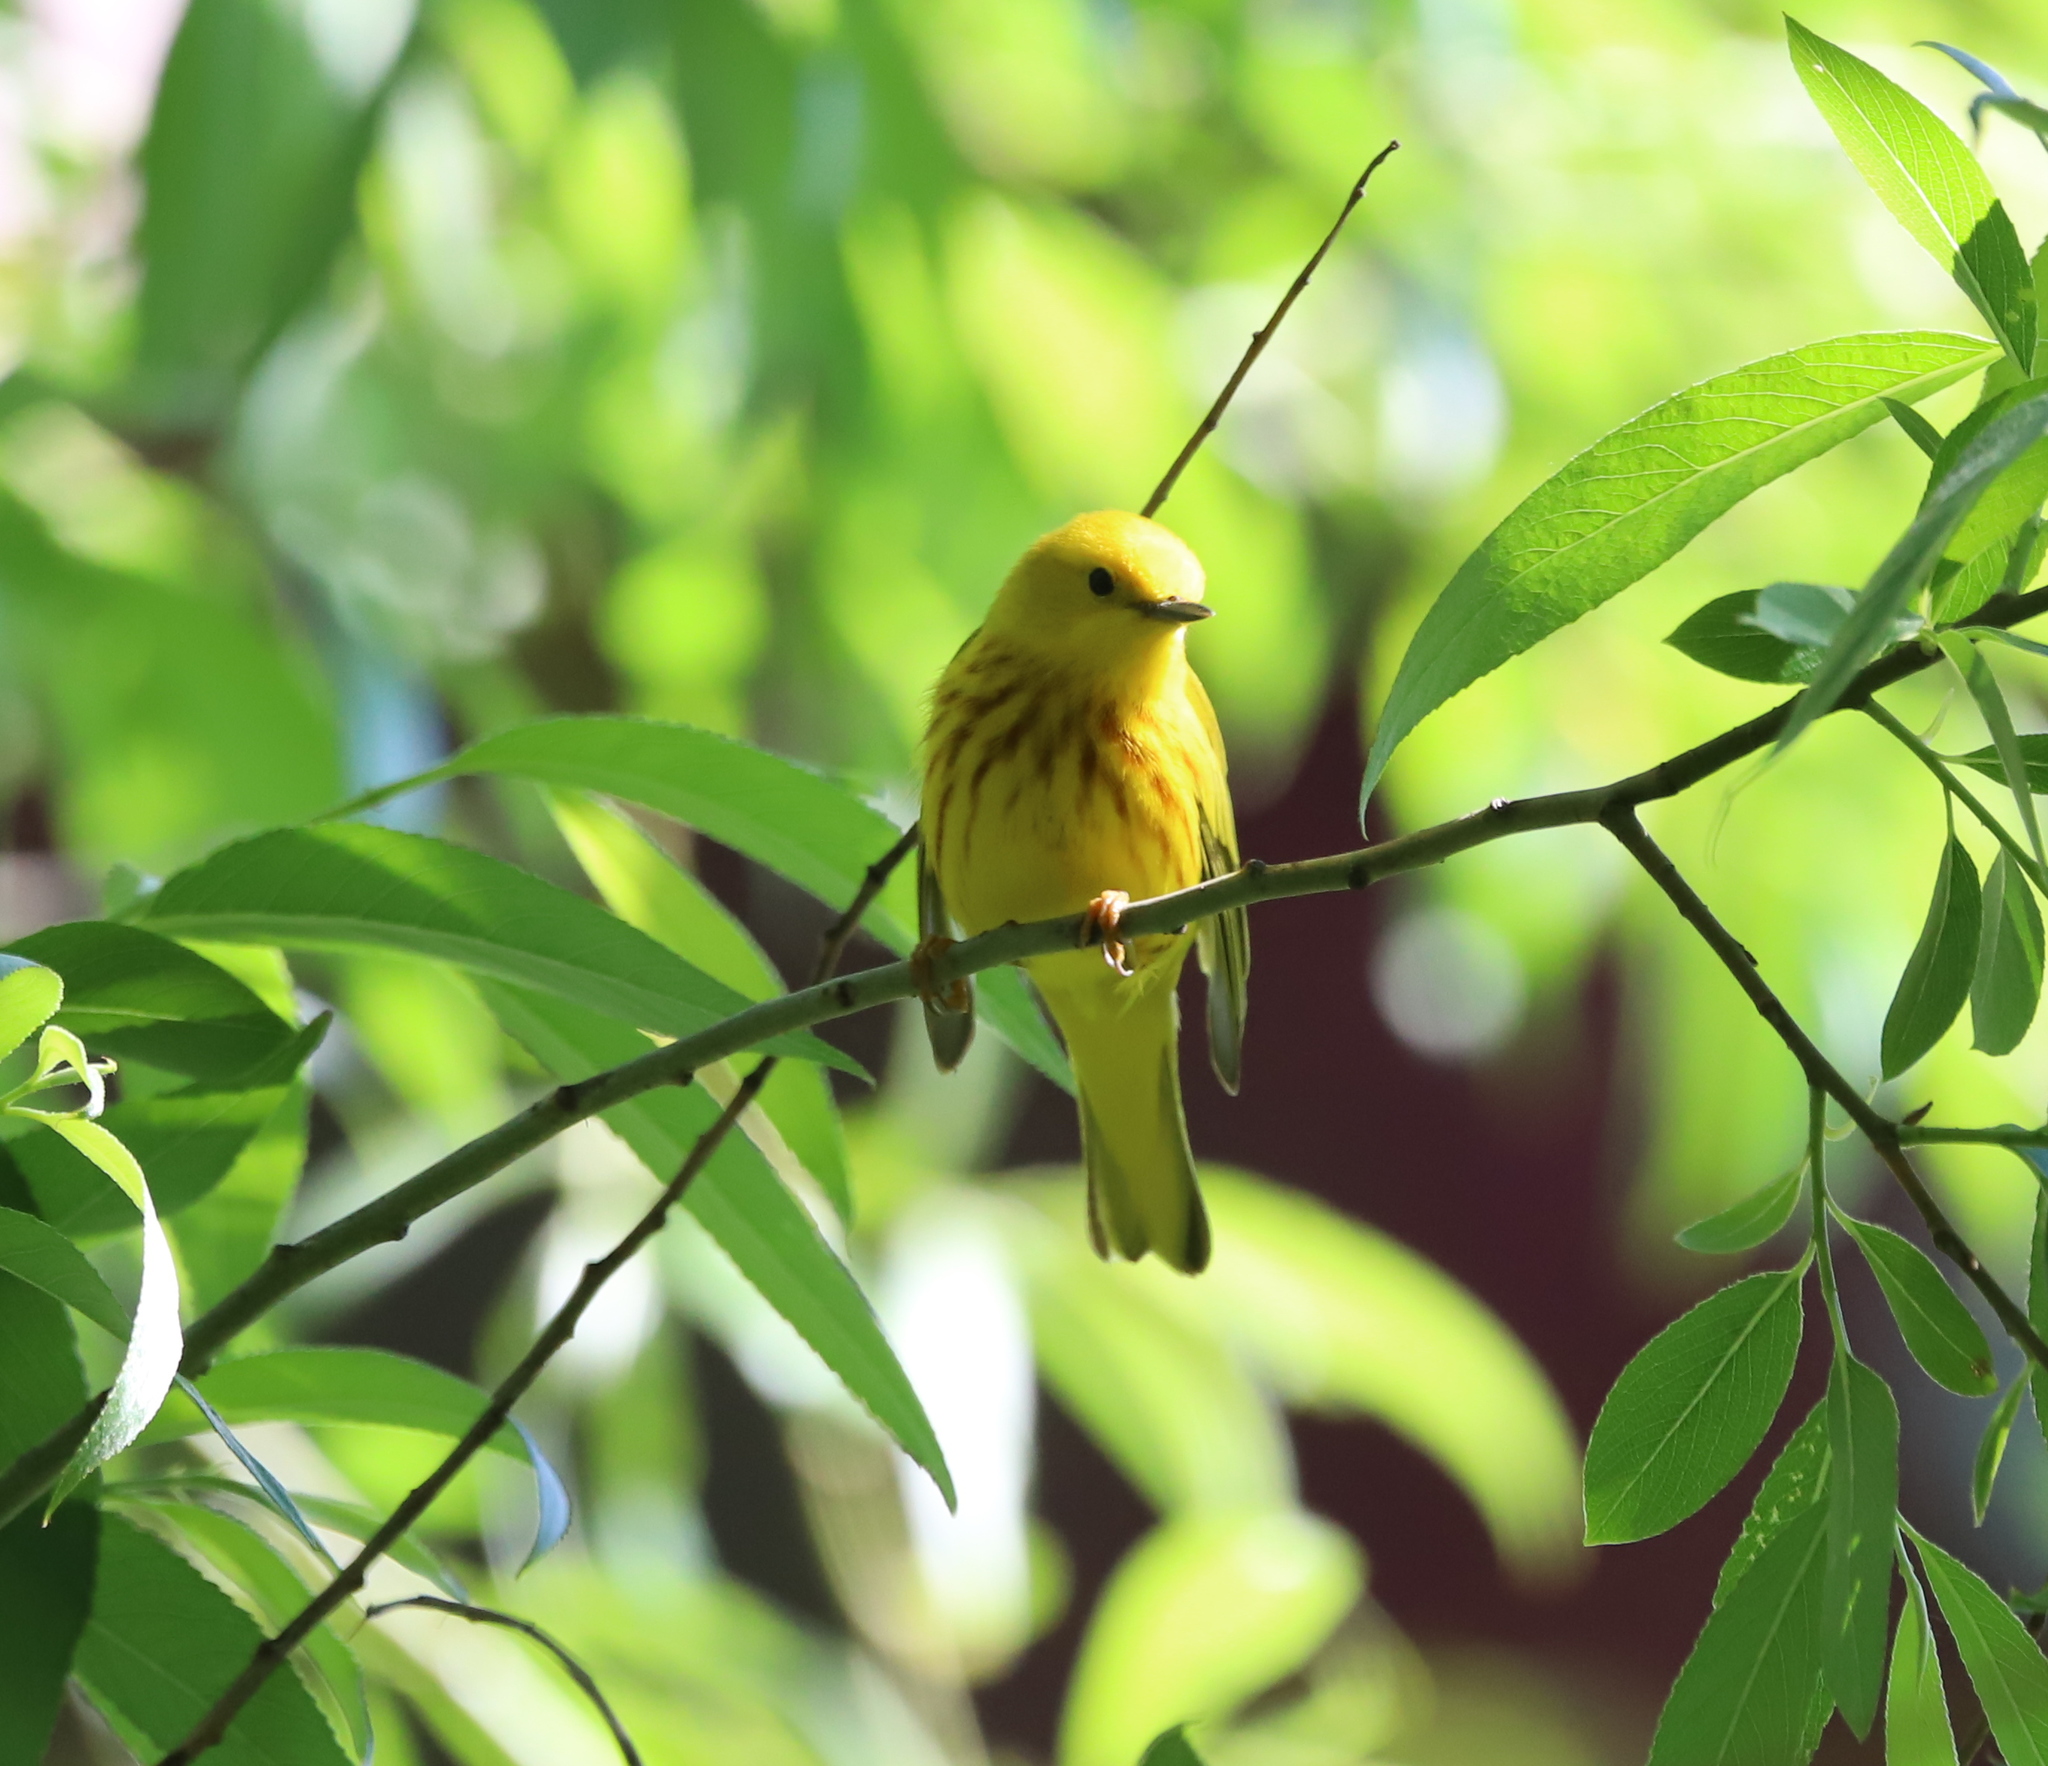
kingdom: Animalia
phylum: Chordata
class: Aves
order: Passeriformes
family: Parulidae
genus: Setophaga
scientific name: Setophaga petechia
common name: Yellow warbler
